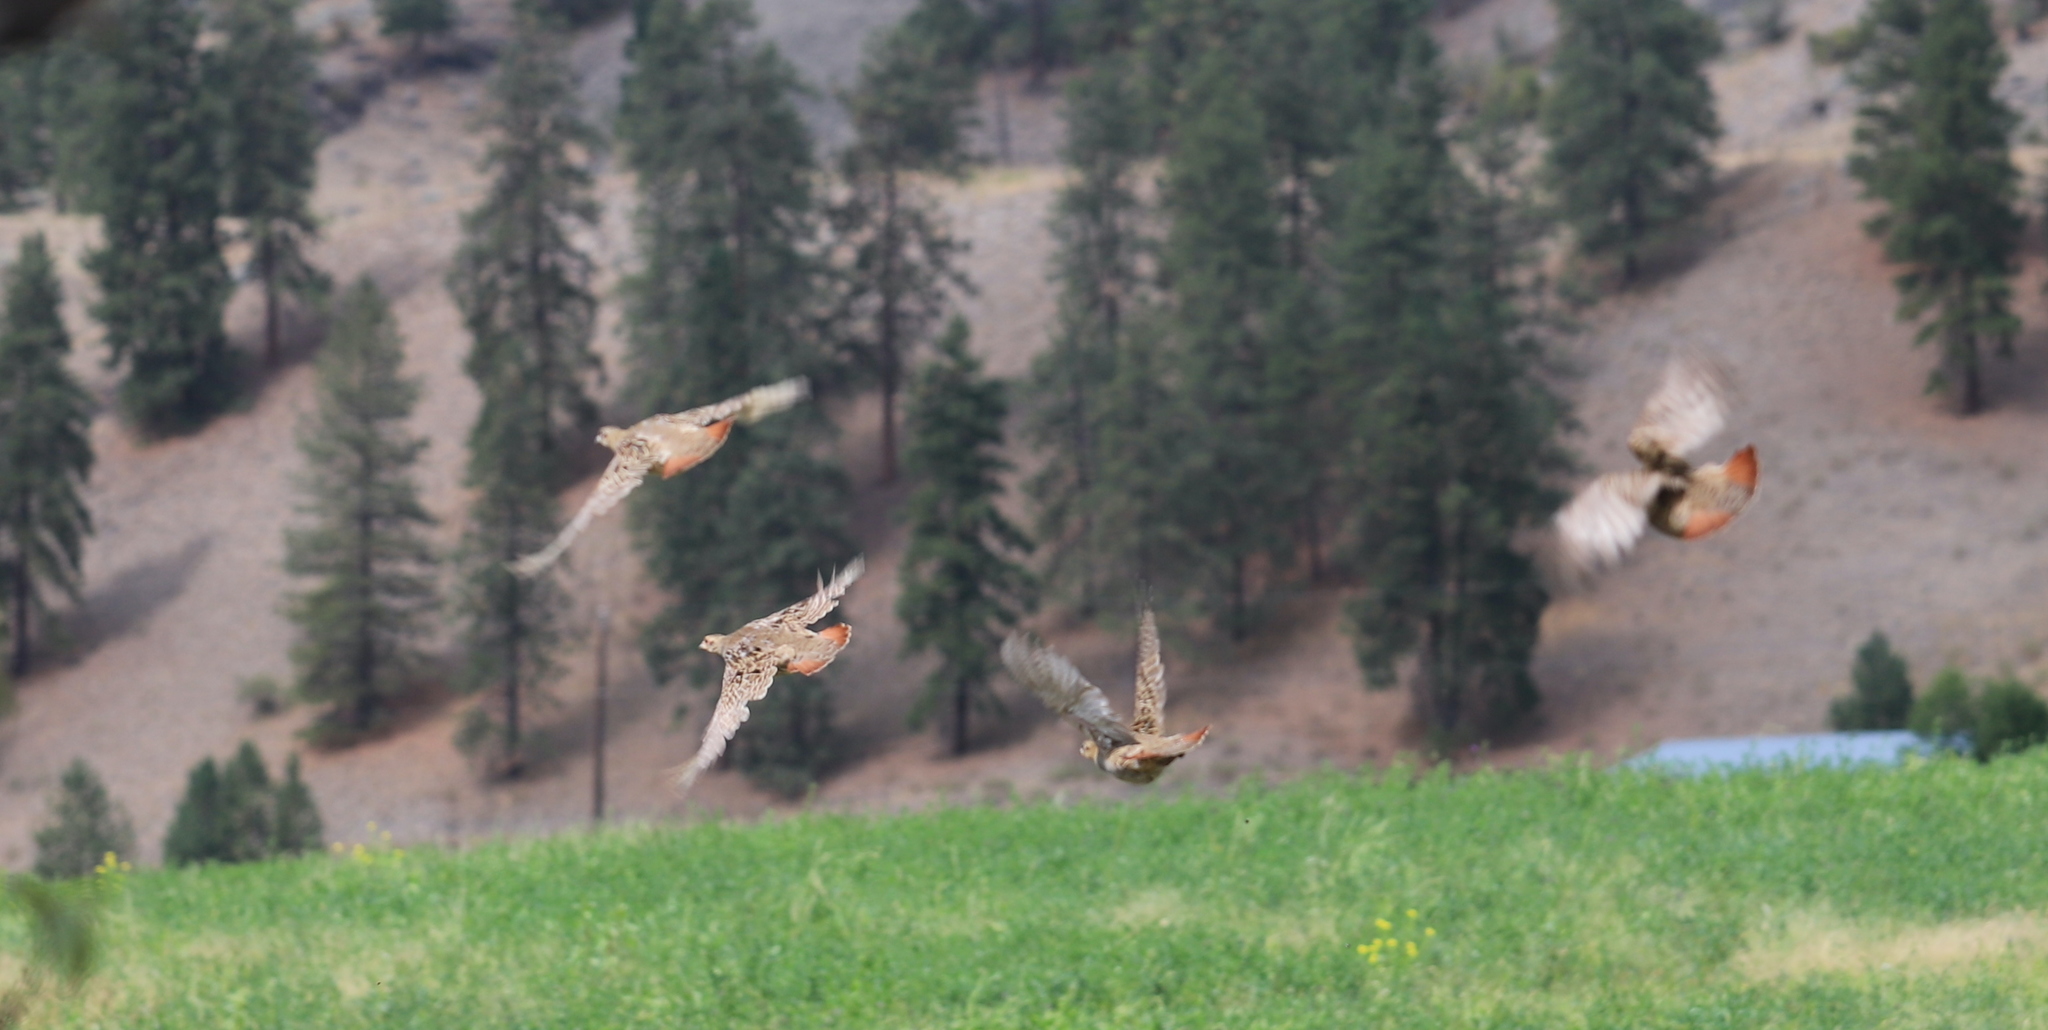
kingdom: Animalia
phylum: Chordata
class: Aves
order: Galliformes
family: Phasianidae
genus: Perdix
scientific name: Perdix perdix
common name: Grey partridge
